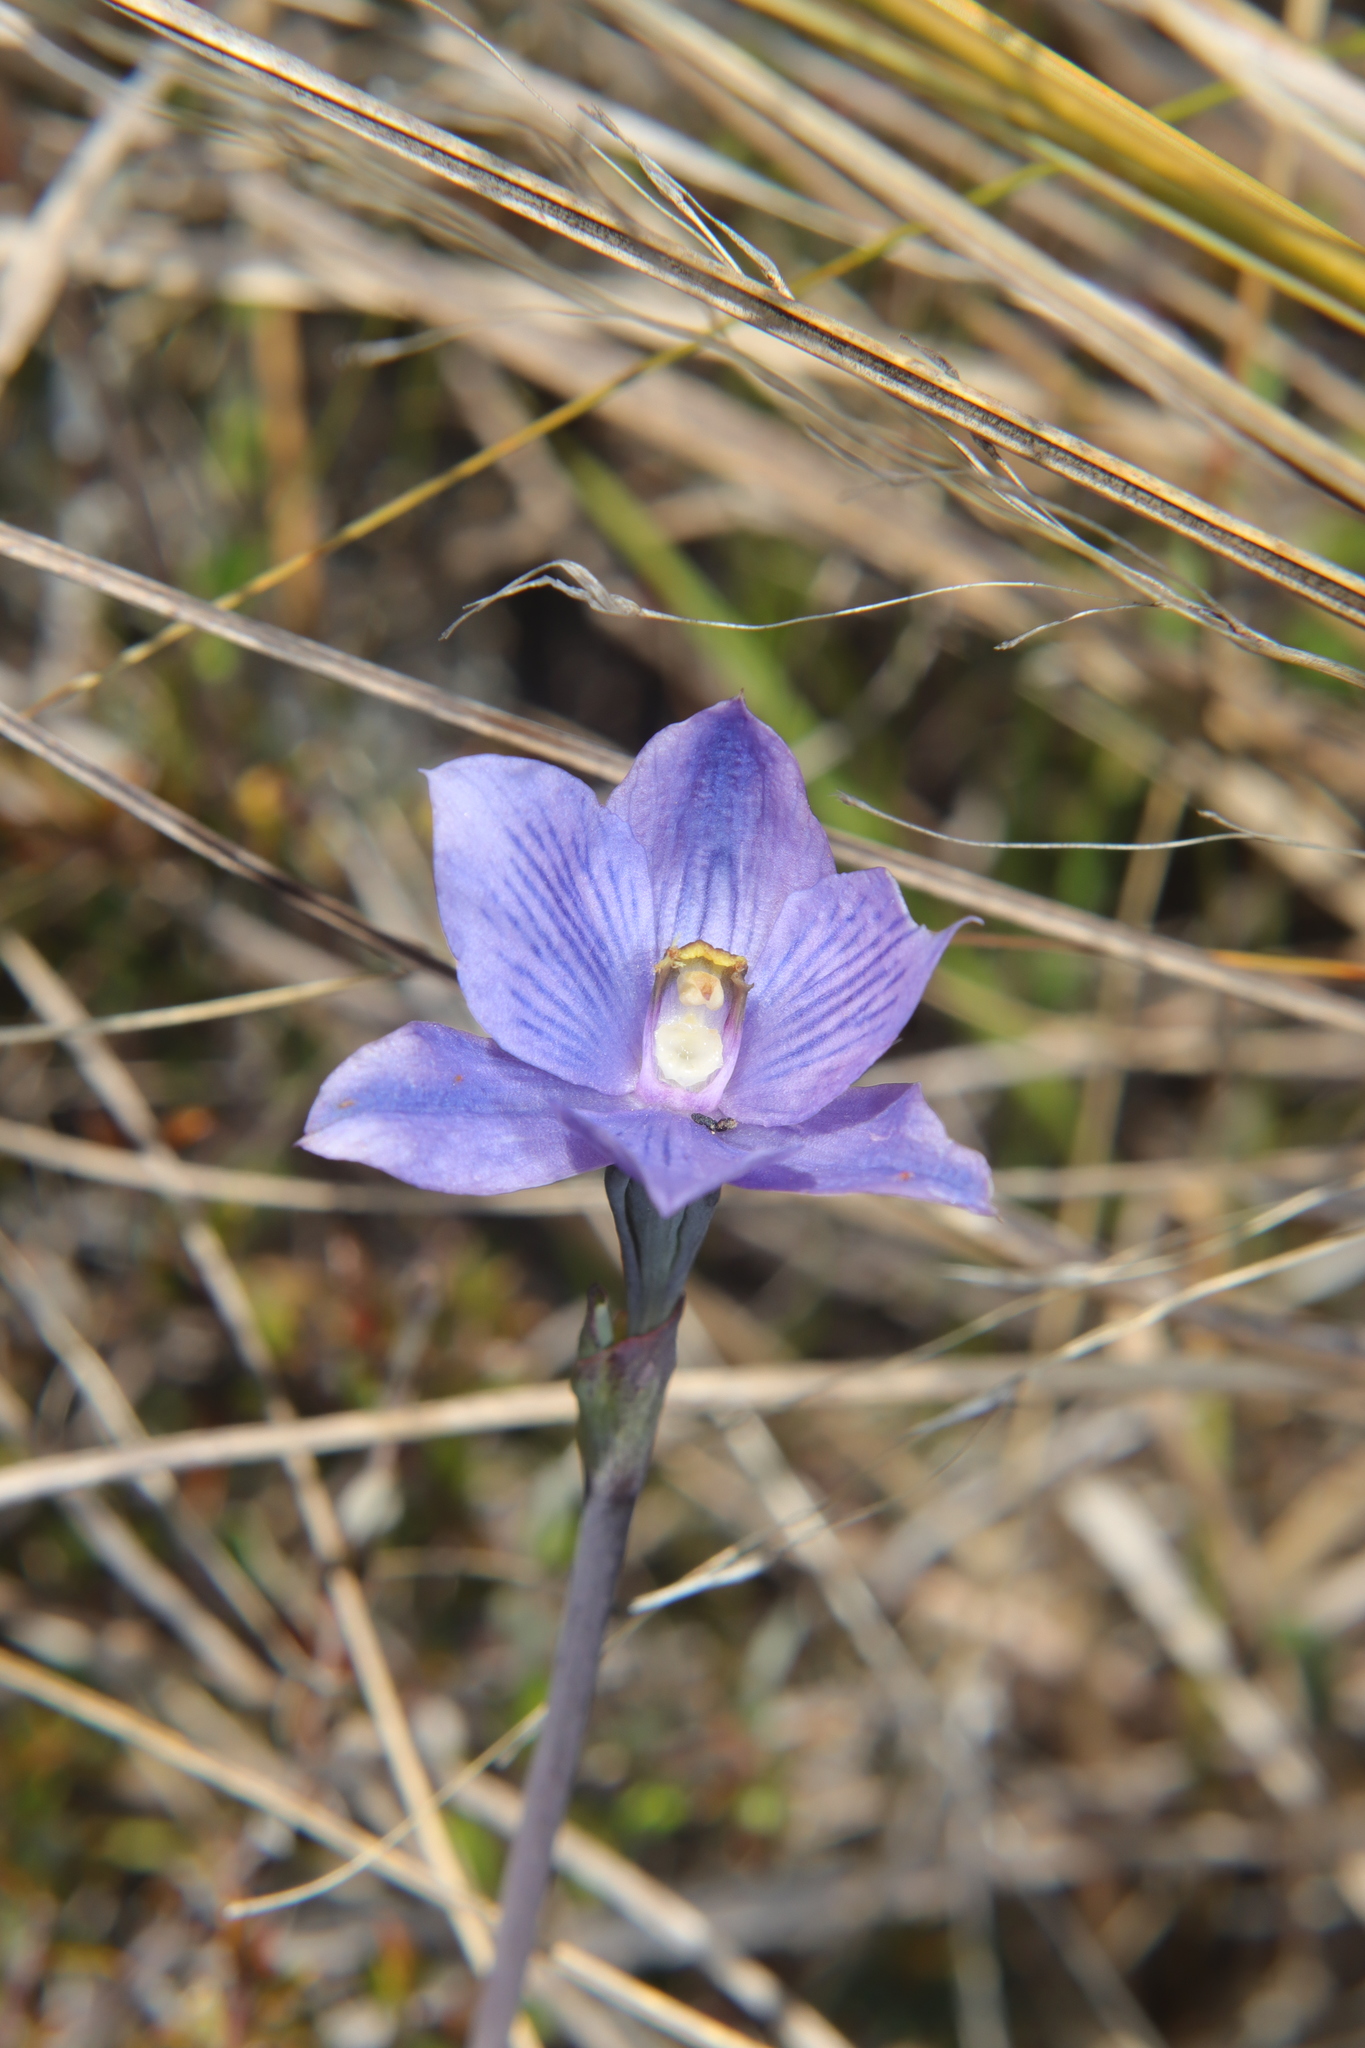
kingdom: Plantae
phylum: Tracheophyta
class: Liliopsida
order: Asparagales
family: Orchidaceae
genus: Thelymitra
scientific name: Thelymitra pulchella
